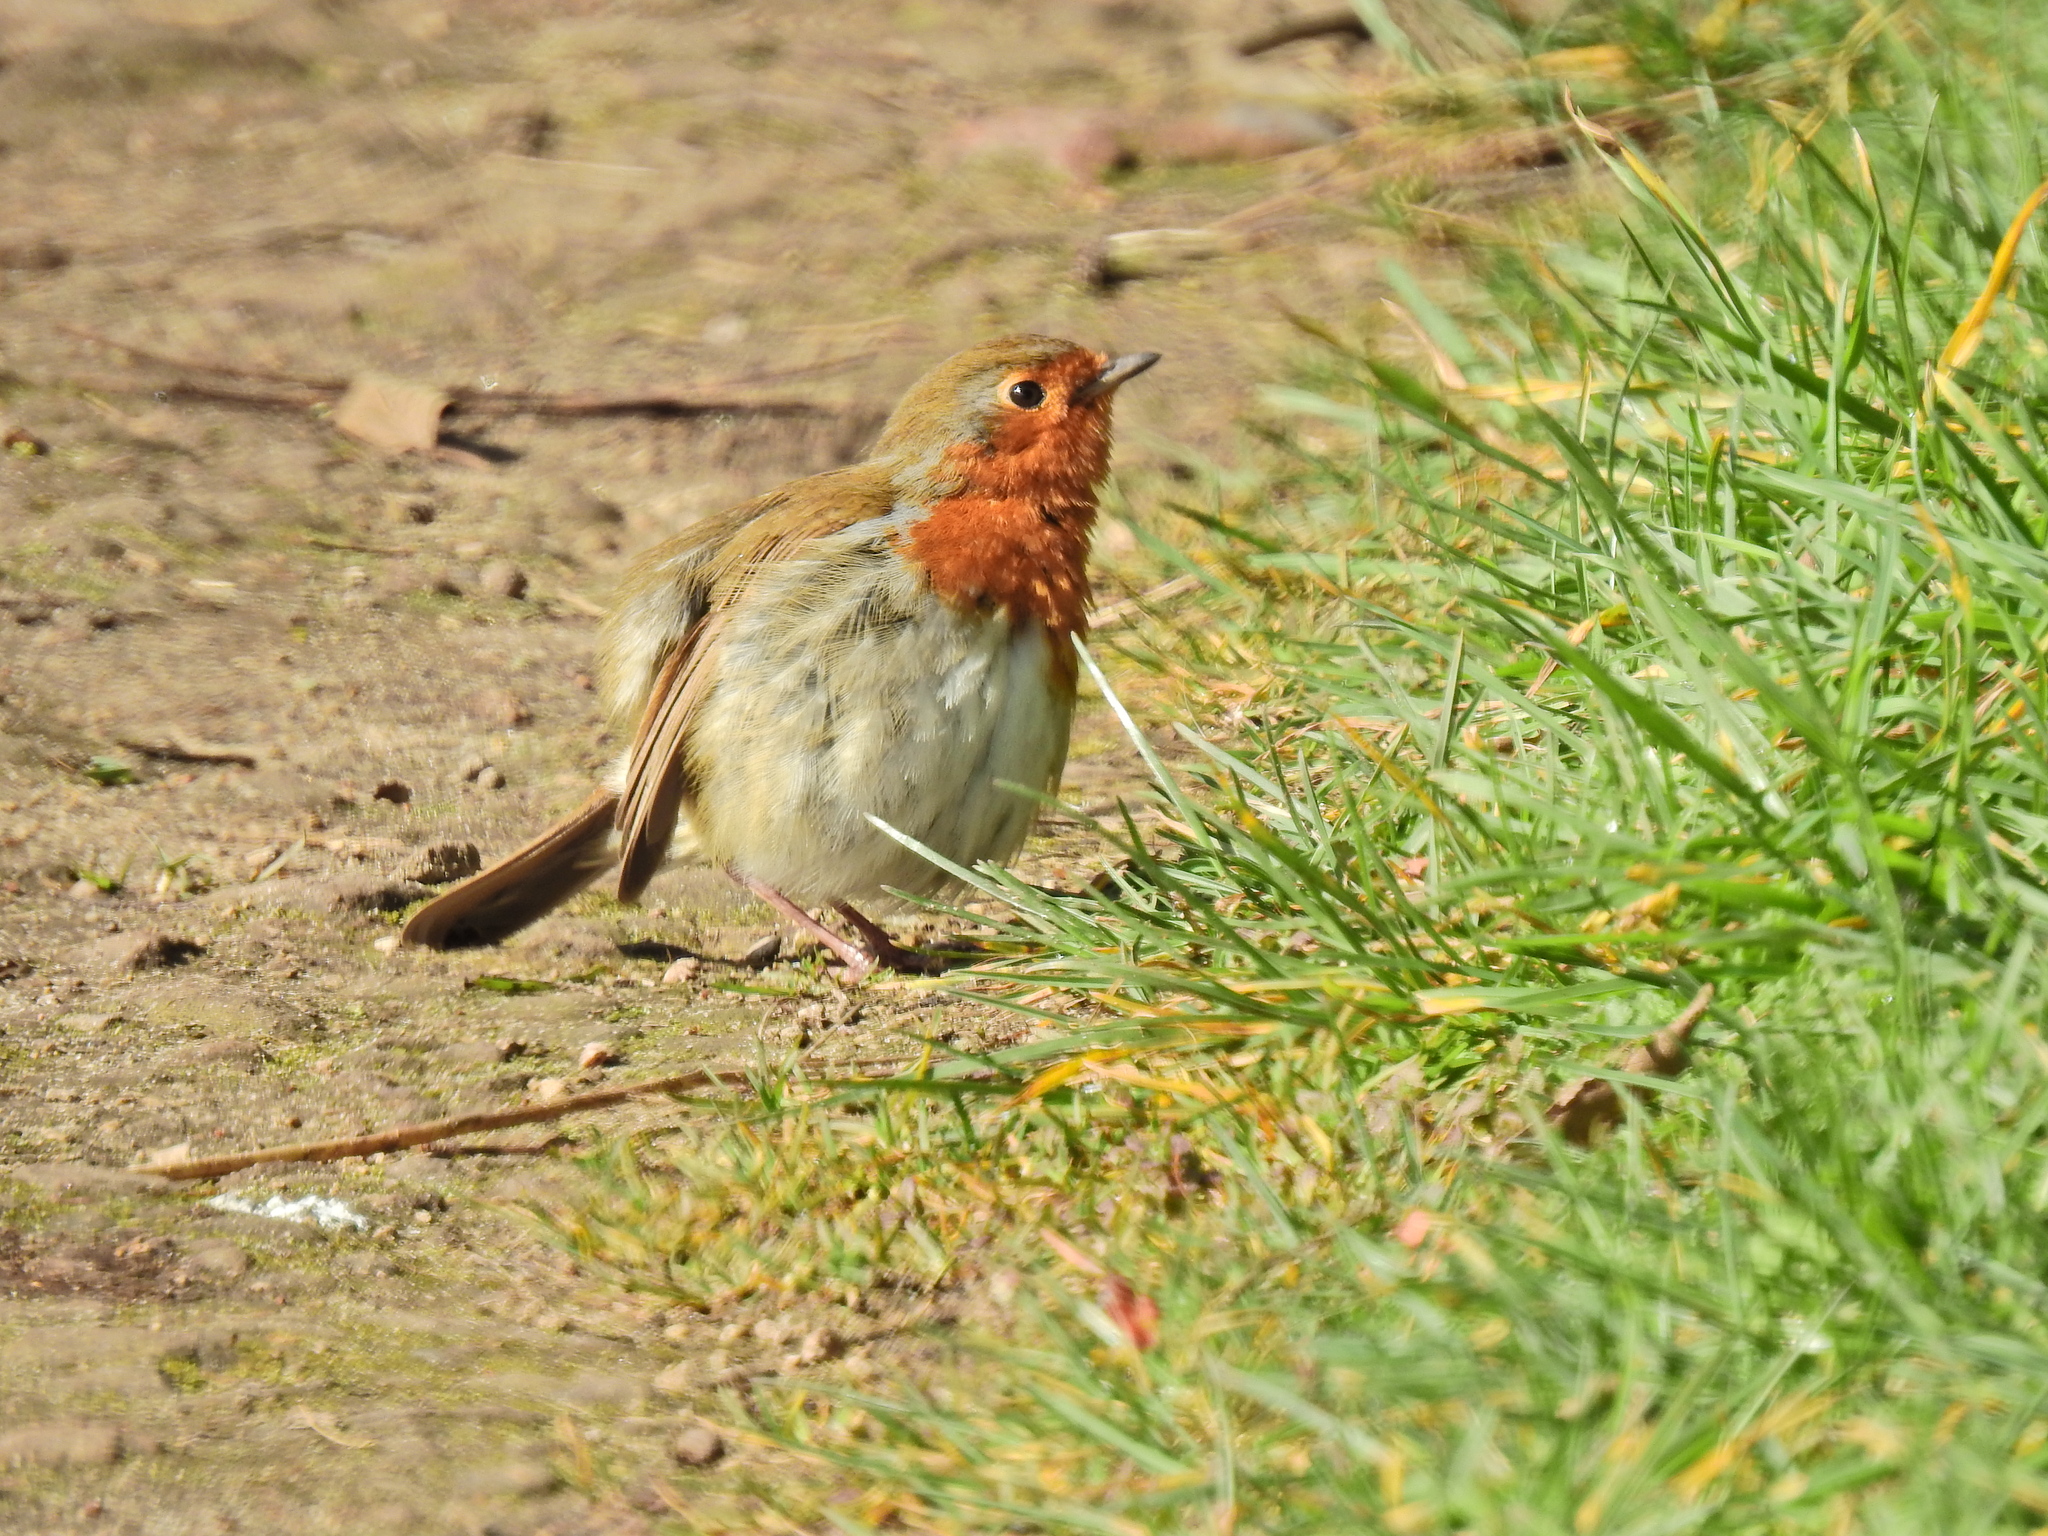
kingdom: Animalia
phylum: Chordata
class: Aves
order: Passeriformes
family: Muscicapidae
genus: Erithacus
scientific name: Erithacus rubecula
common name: European robin
